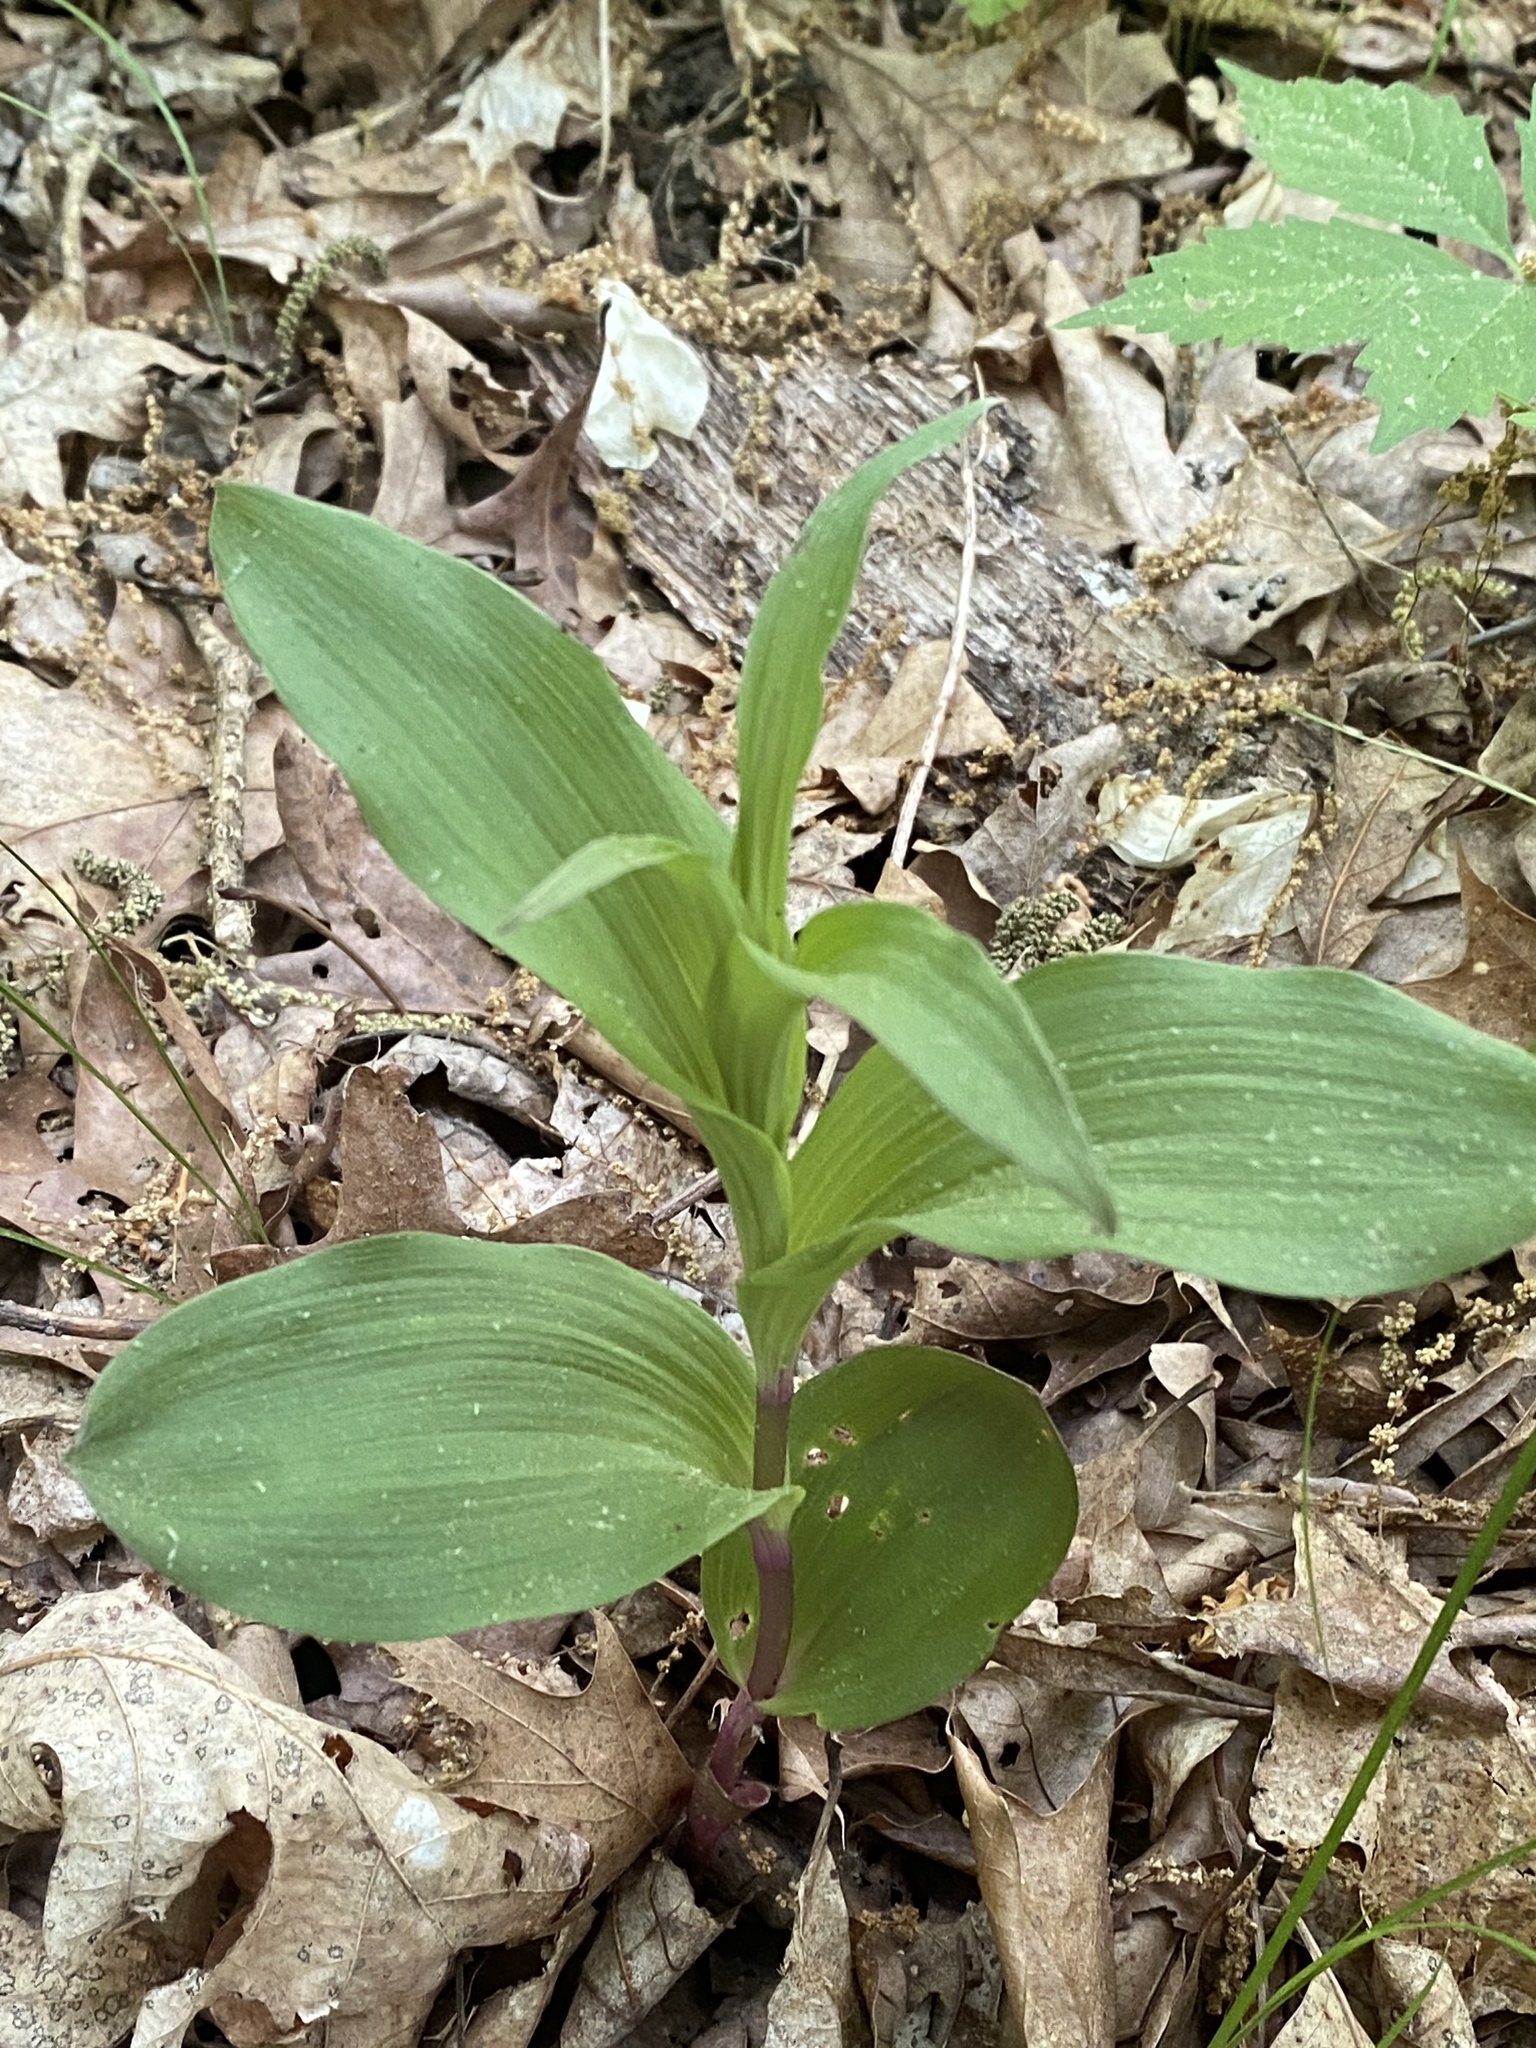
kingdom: Plantae
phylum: Tracheophyta
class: Liliopsida
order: Asparagales
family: Orchidaceae
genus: Epipactis
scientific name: Epipactis helleborine
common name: Broad-leaved helleborine
